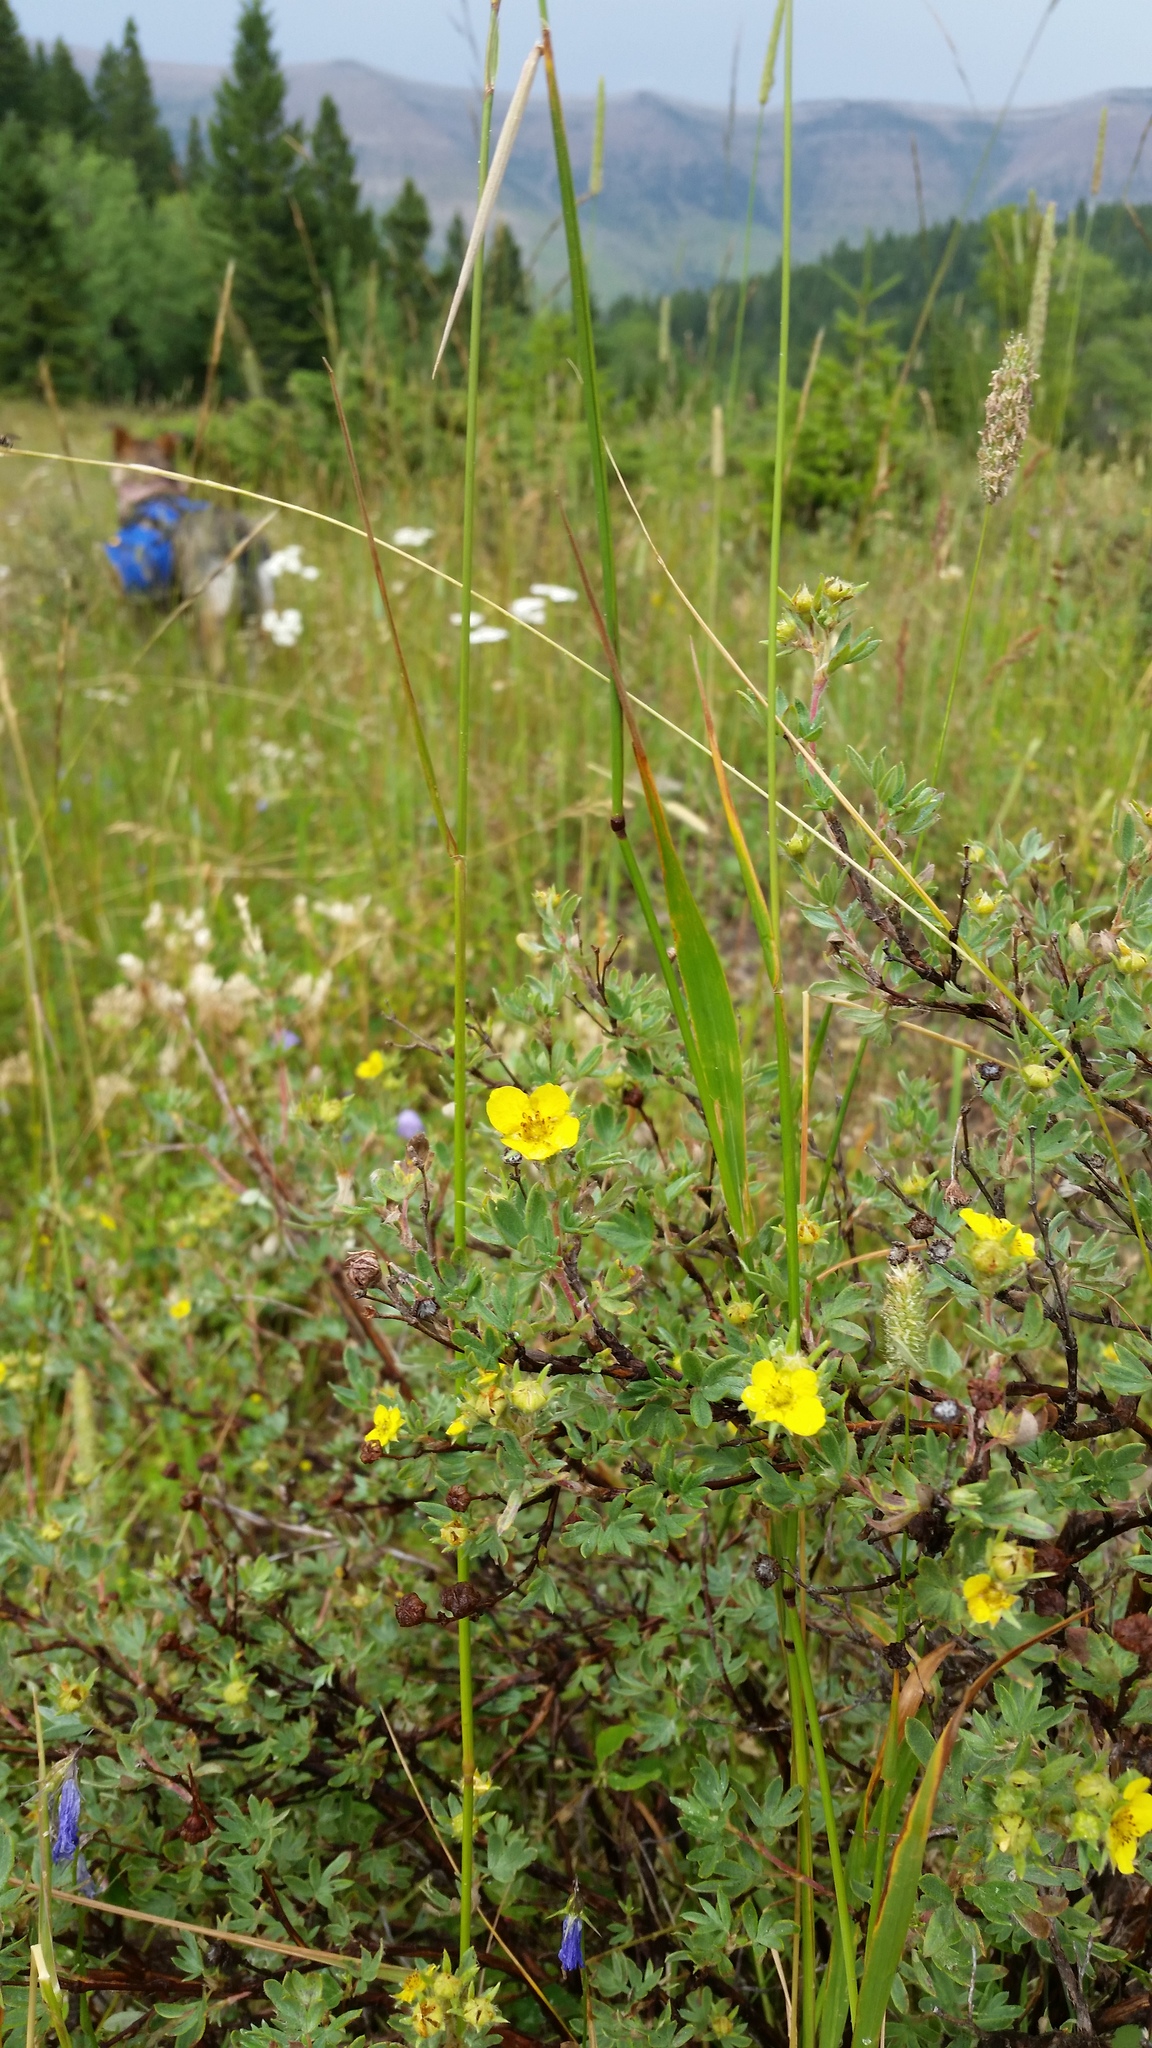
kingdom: Plantae
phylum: Tracheophyta
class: Magnoliopsida
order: Rosales
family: Rosaceae
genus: Dasiphora
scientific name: Dasiphora fruticosa
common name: Shrubby cinquefoil
